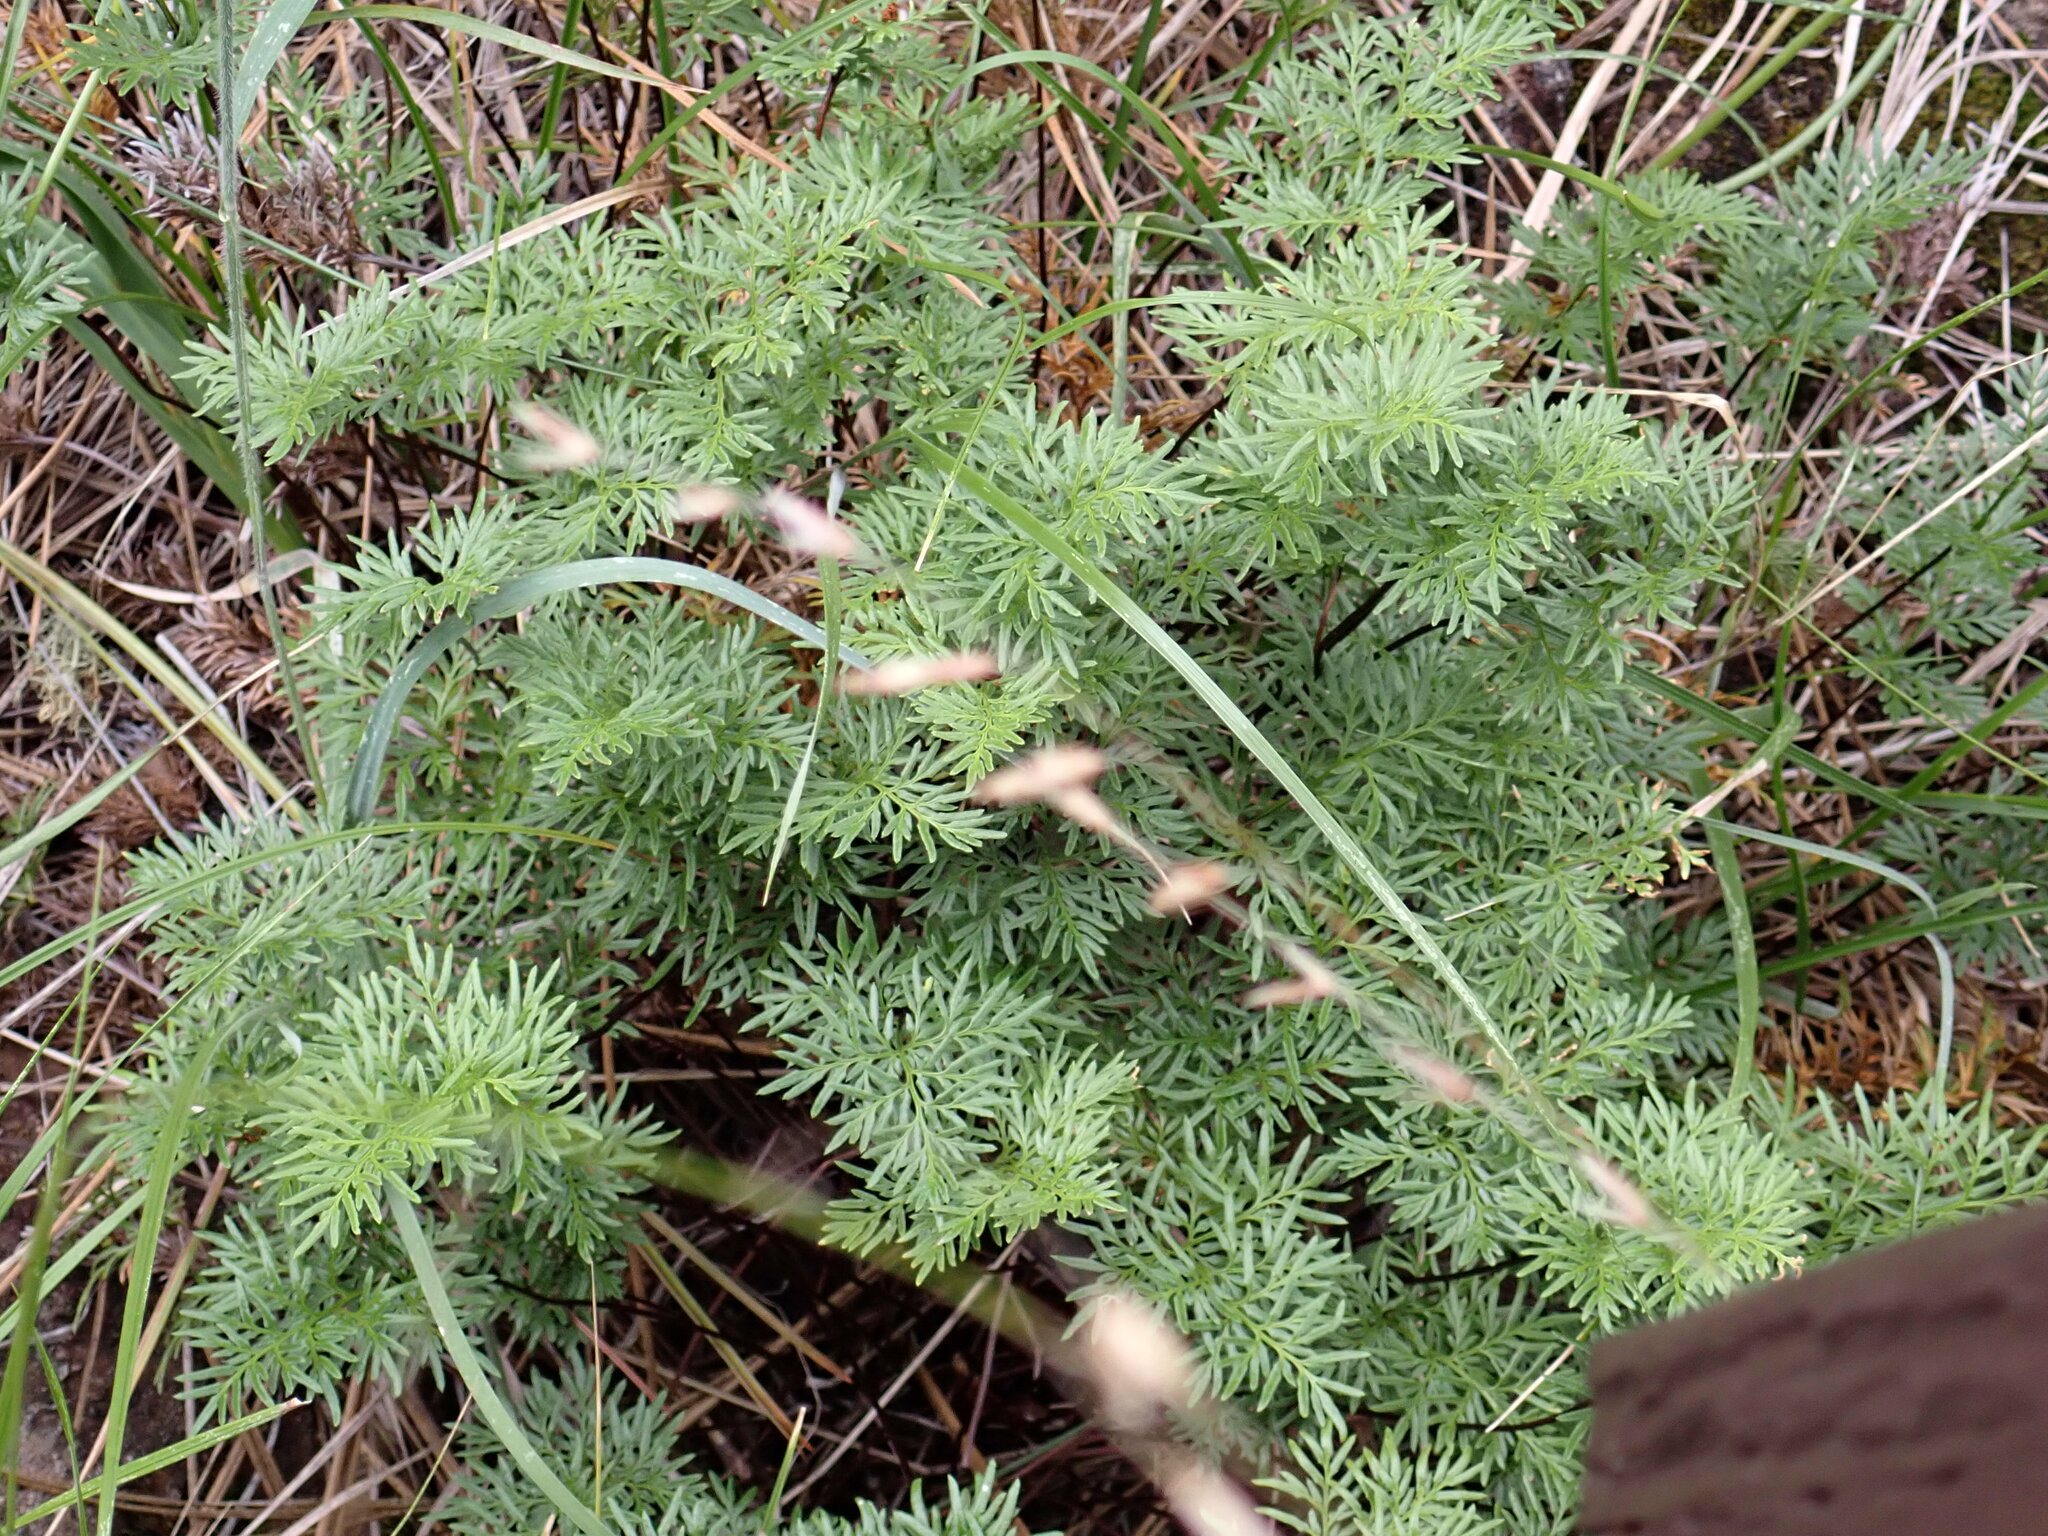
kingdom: Plantae
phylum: Tracheophyta
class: Polypodiopsida
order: Polypodiales
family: Pteridaceae
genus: Aspidotis
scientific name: Aspidotis densa
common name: Indian's dream
